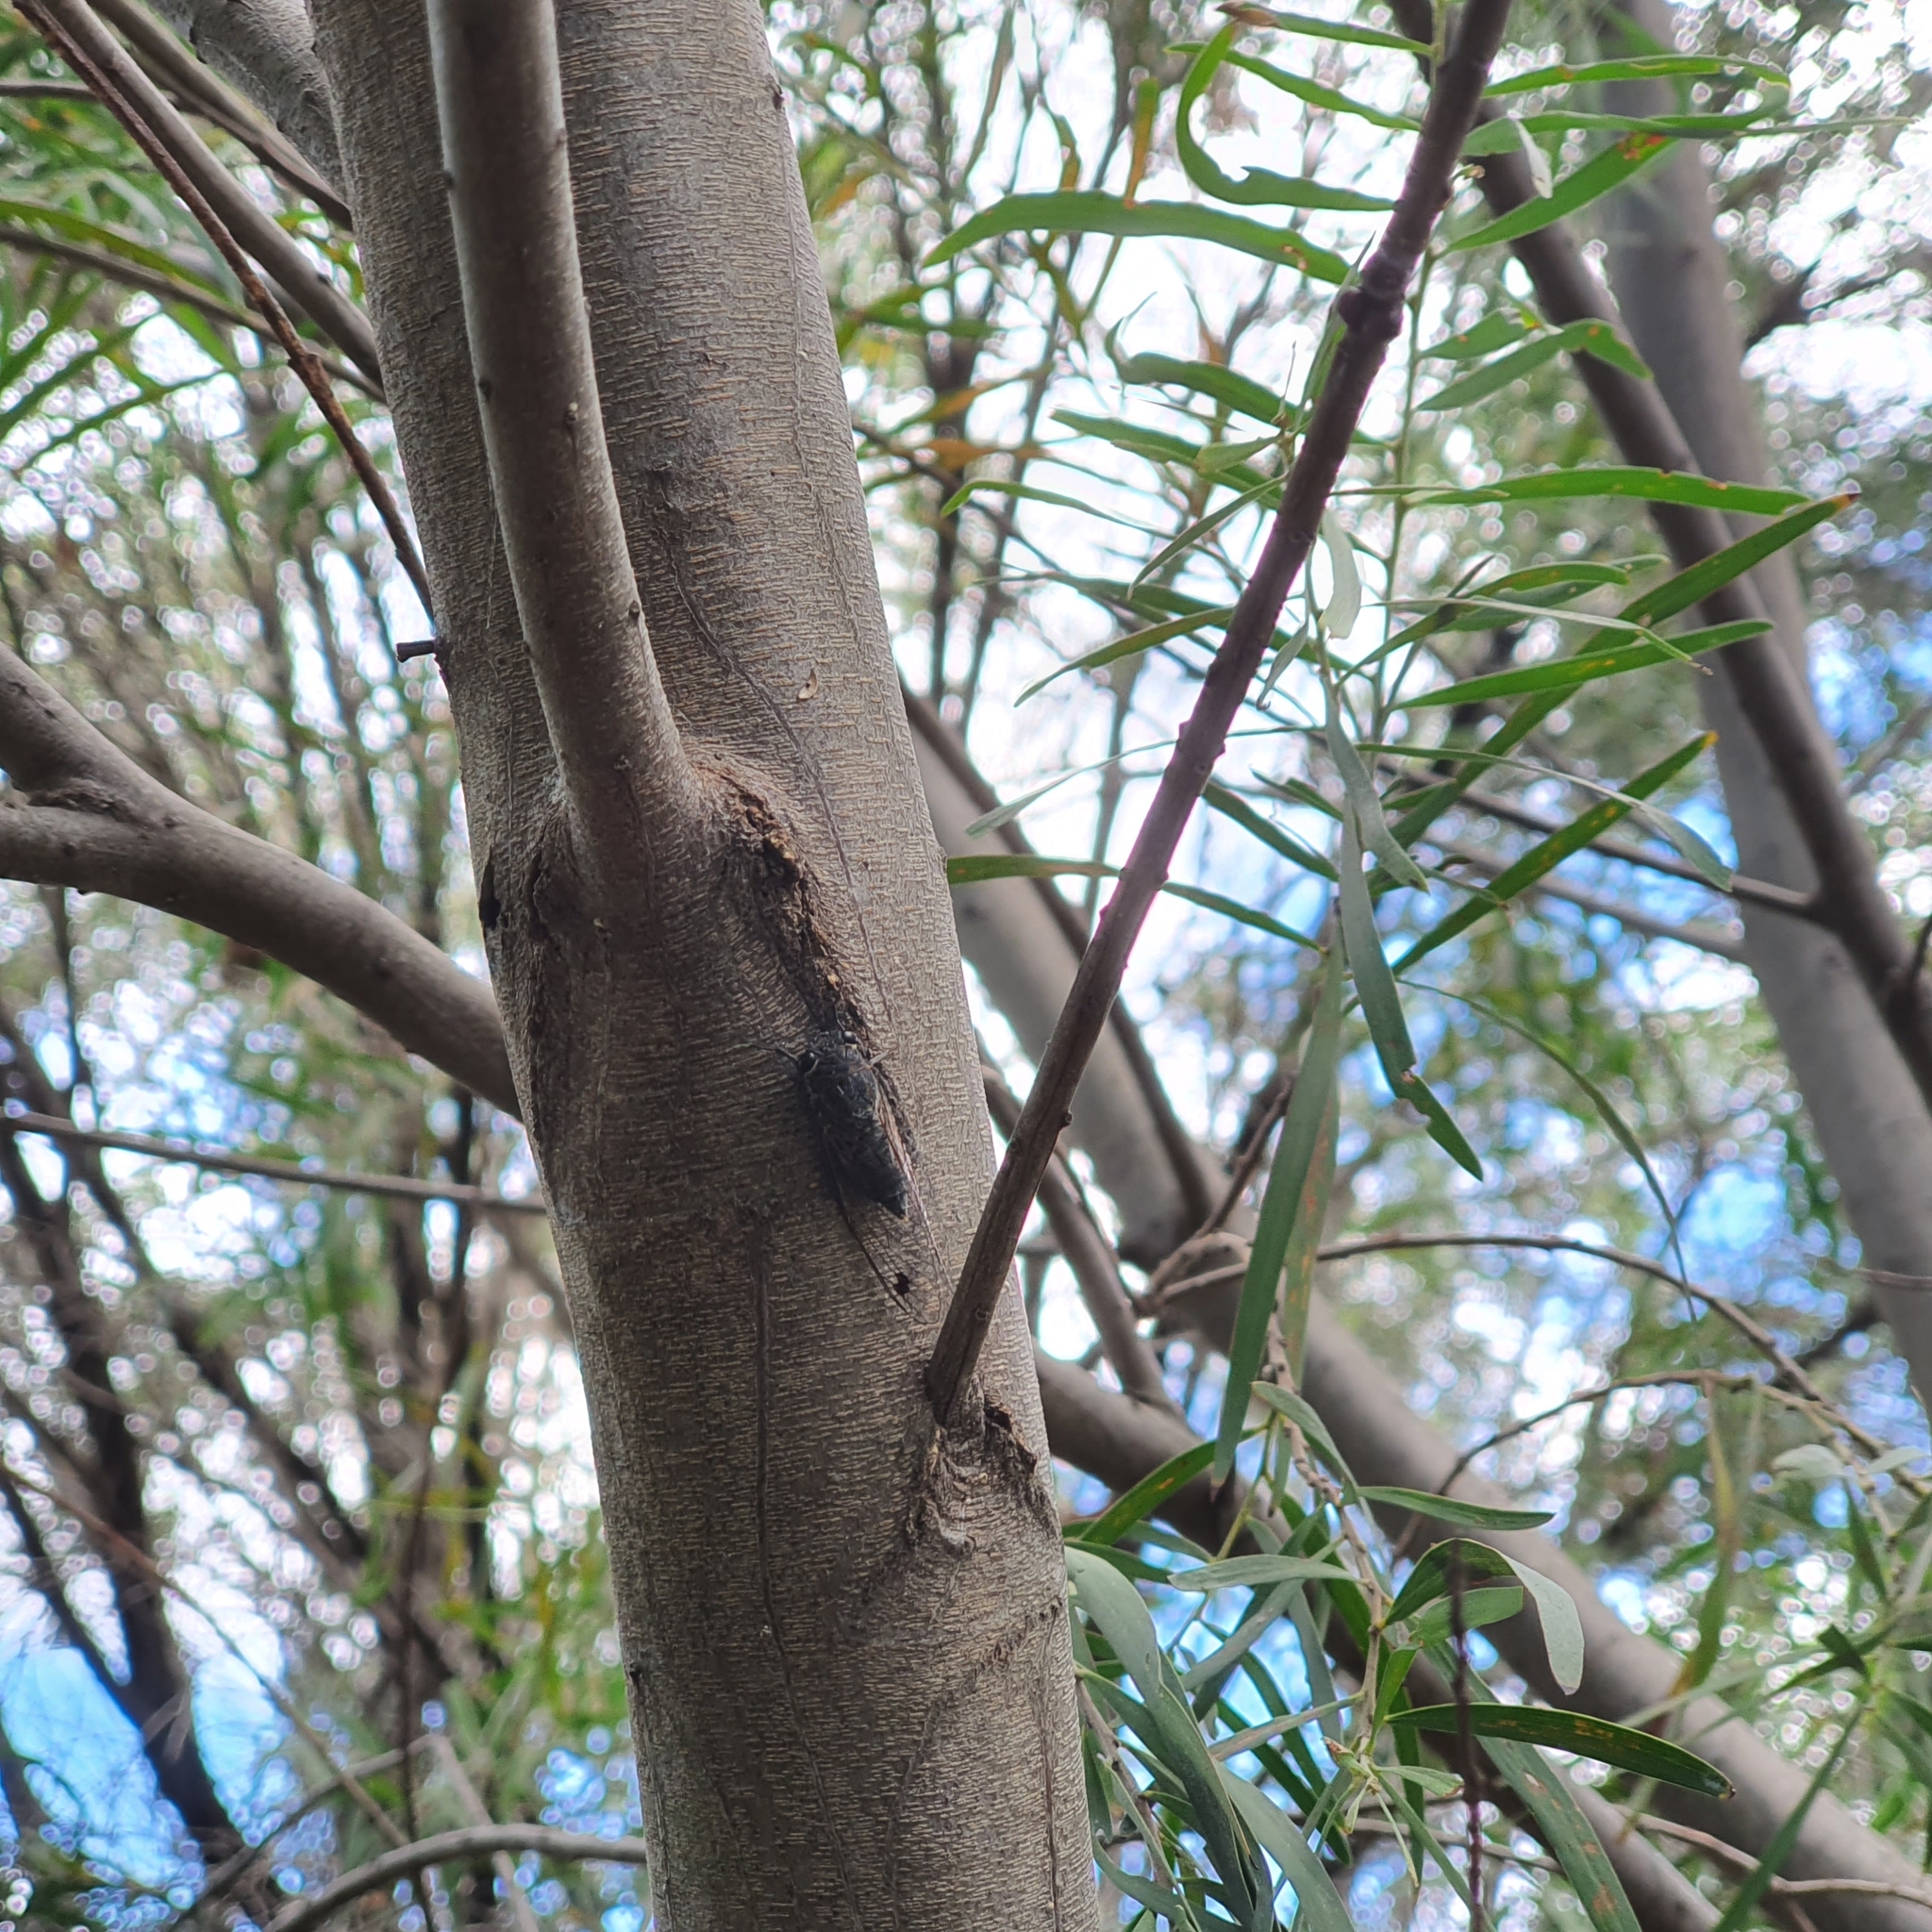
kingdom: Animalia
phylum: Arthropoda
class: Insecta
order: Hemiptera
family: Cicadidae
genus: Galanga
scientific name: Galanga labeculata
